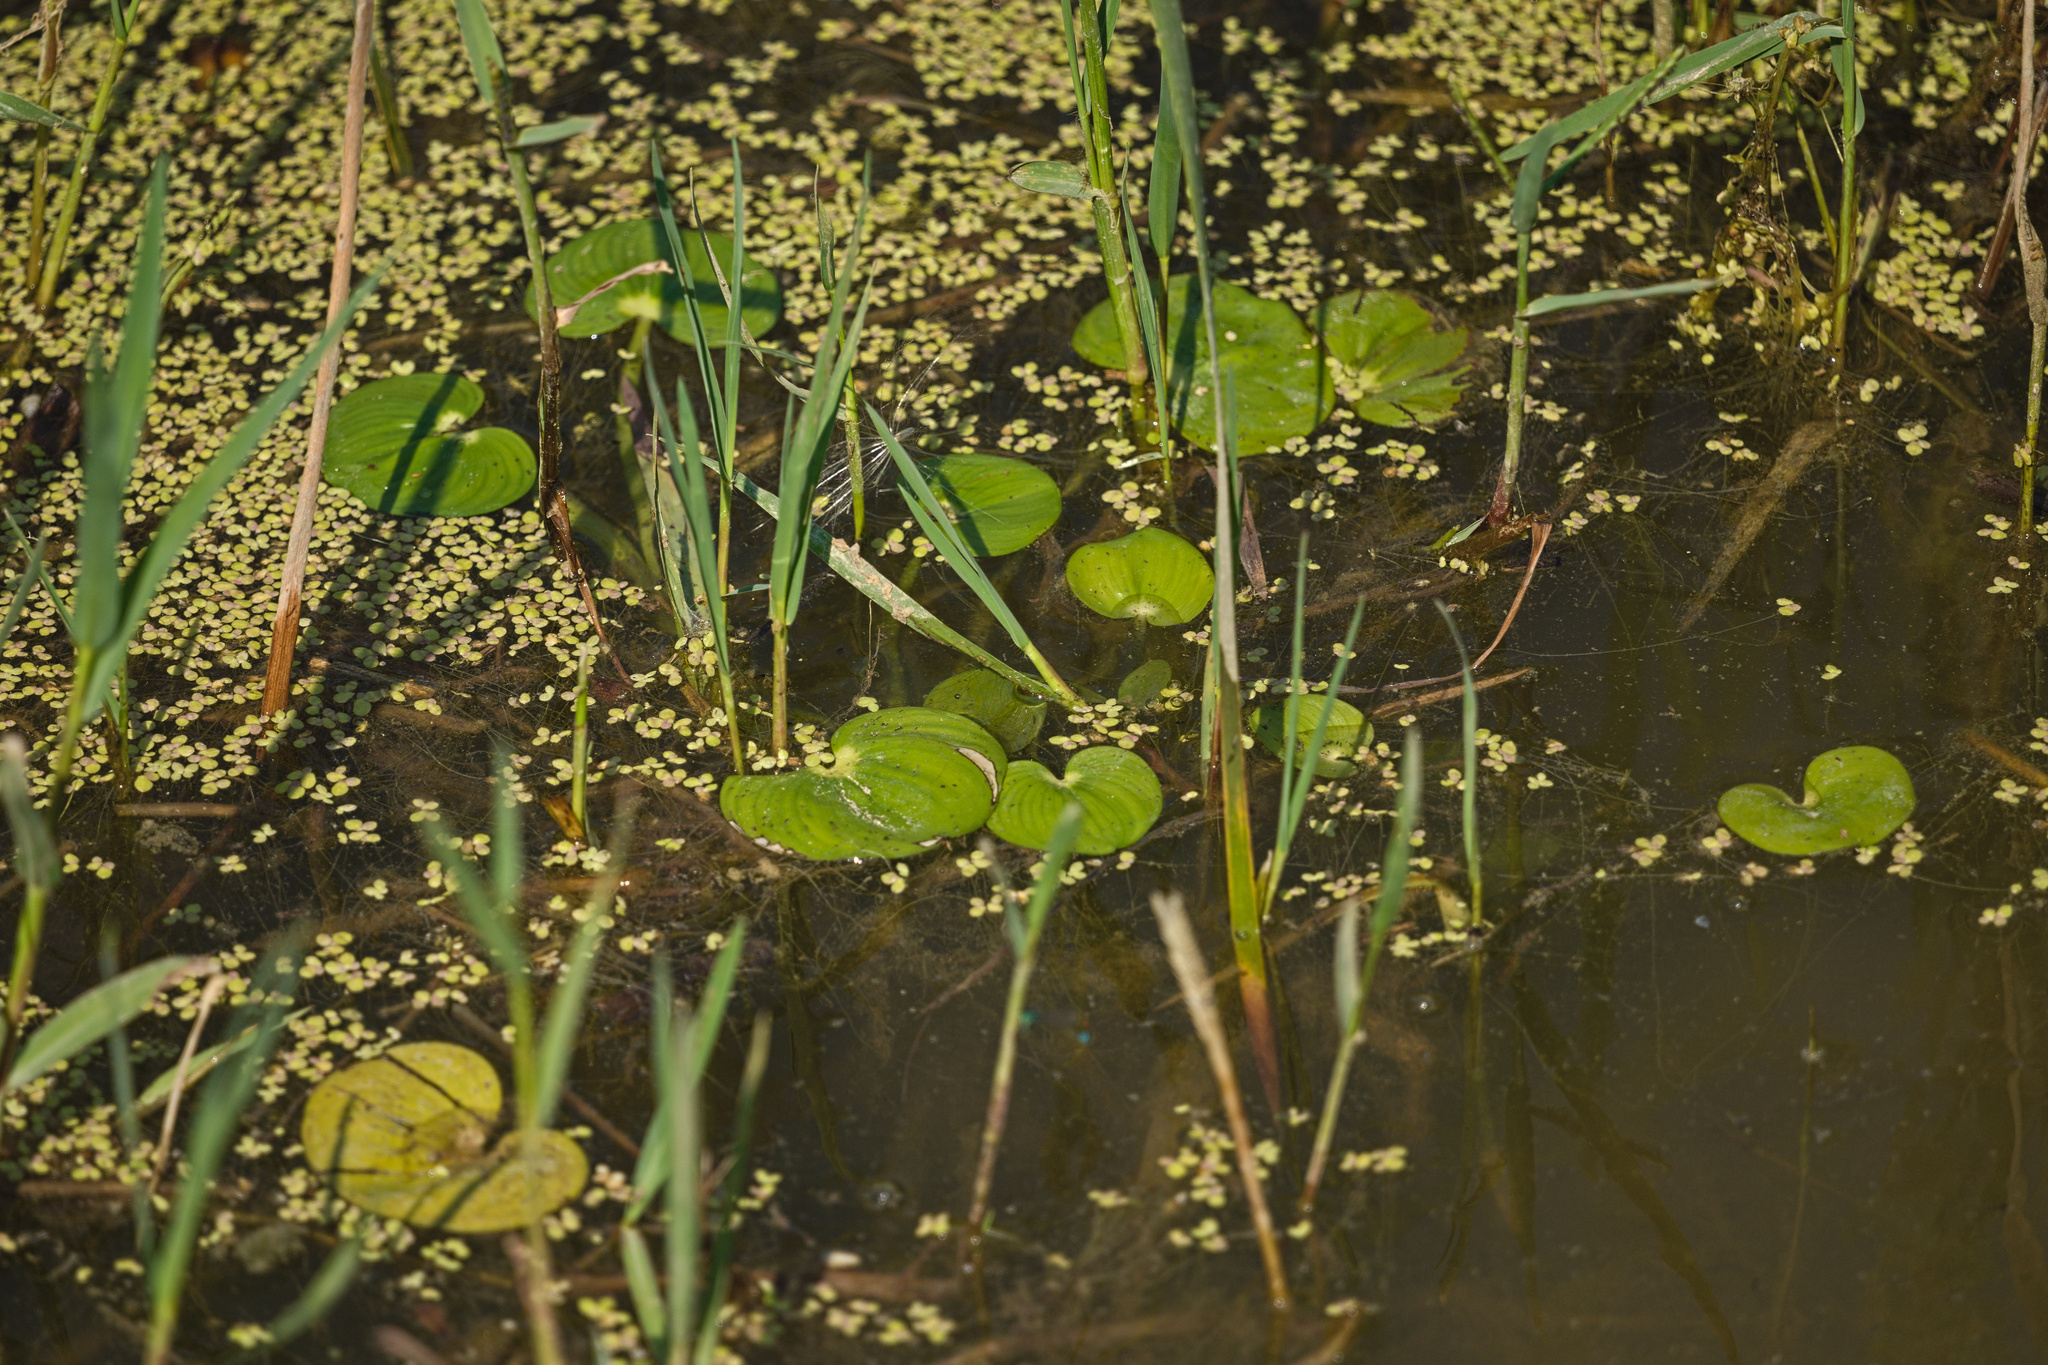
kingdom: Plantae
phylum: Tracheophyta
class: Liliopsida
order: Alismatales
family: Hydrocharitaceae
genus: Hydrocharis
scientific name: Hydrocharis morsus-ranae
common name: Frogbit
